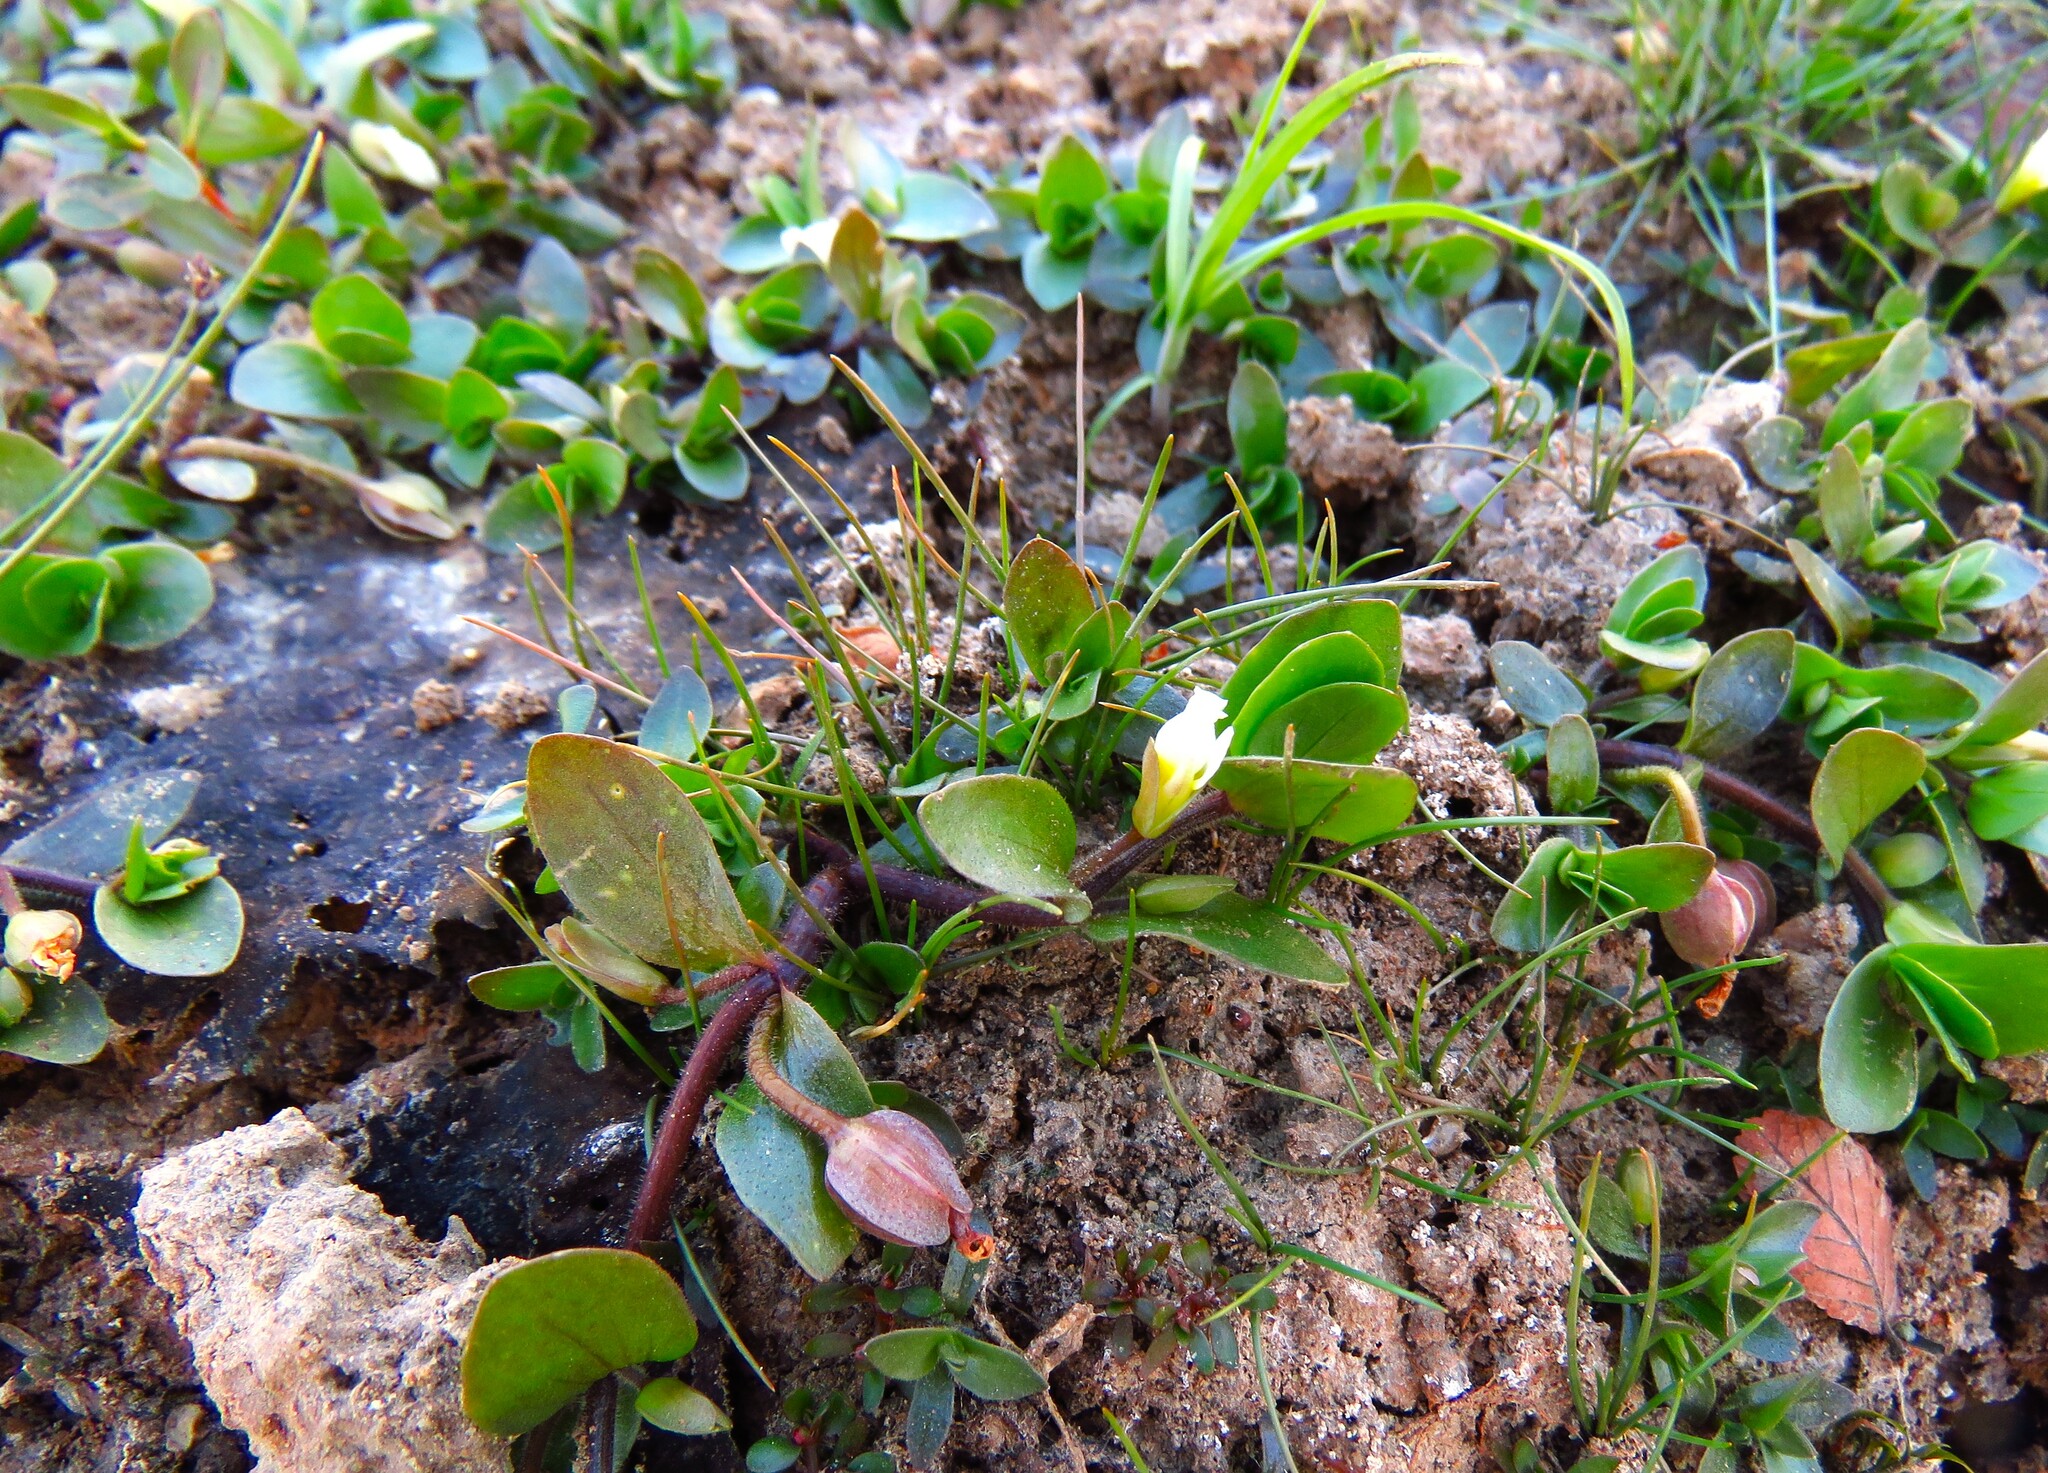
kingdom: Plantae
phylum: Tracheophyta
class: Magnoliopsida
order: Lamiales
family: Plantaginaceae
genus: Bacopa
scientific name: Bacopa rotundifolia
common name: Disc water hyssop
